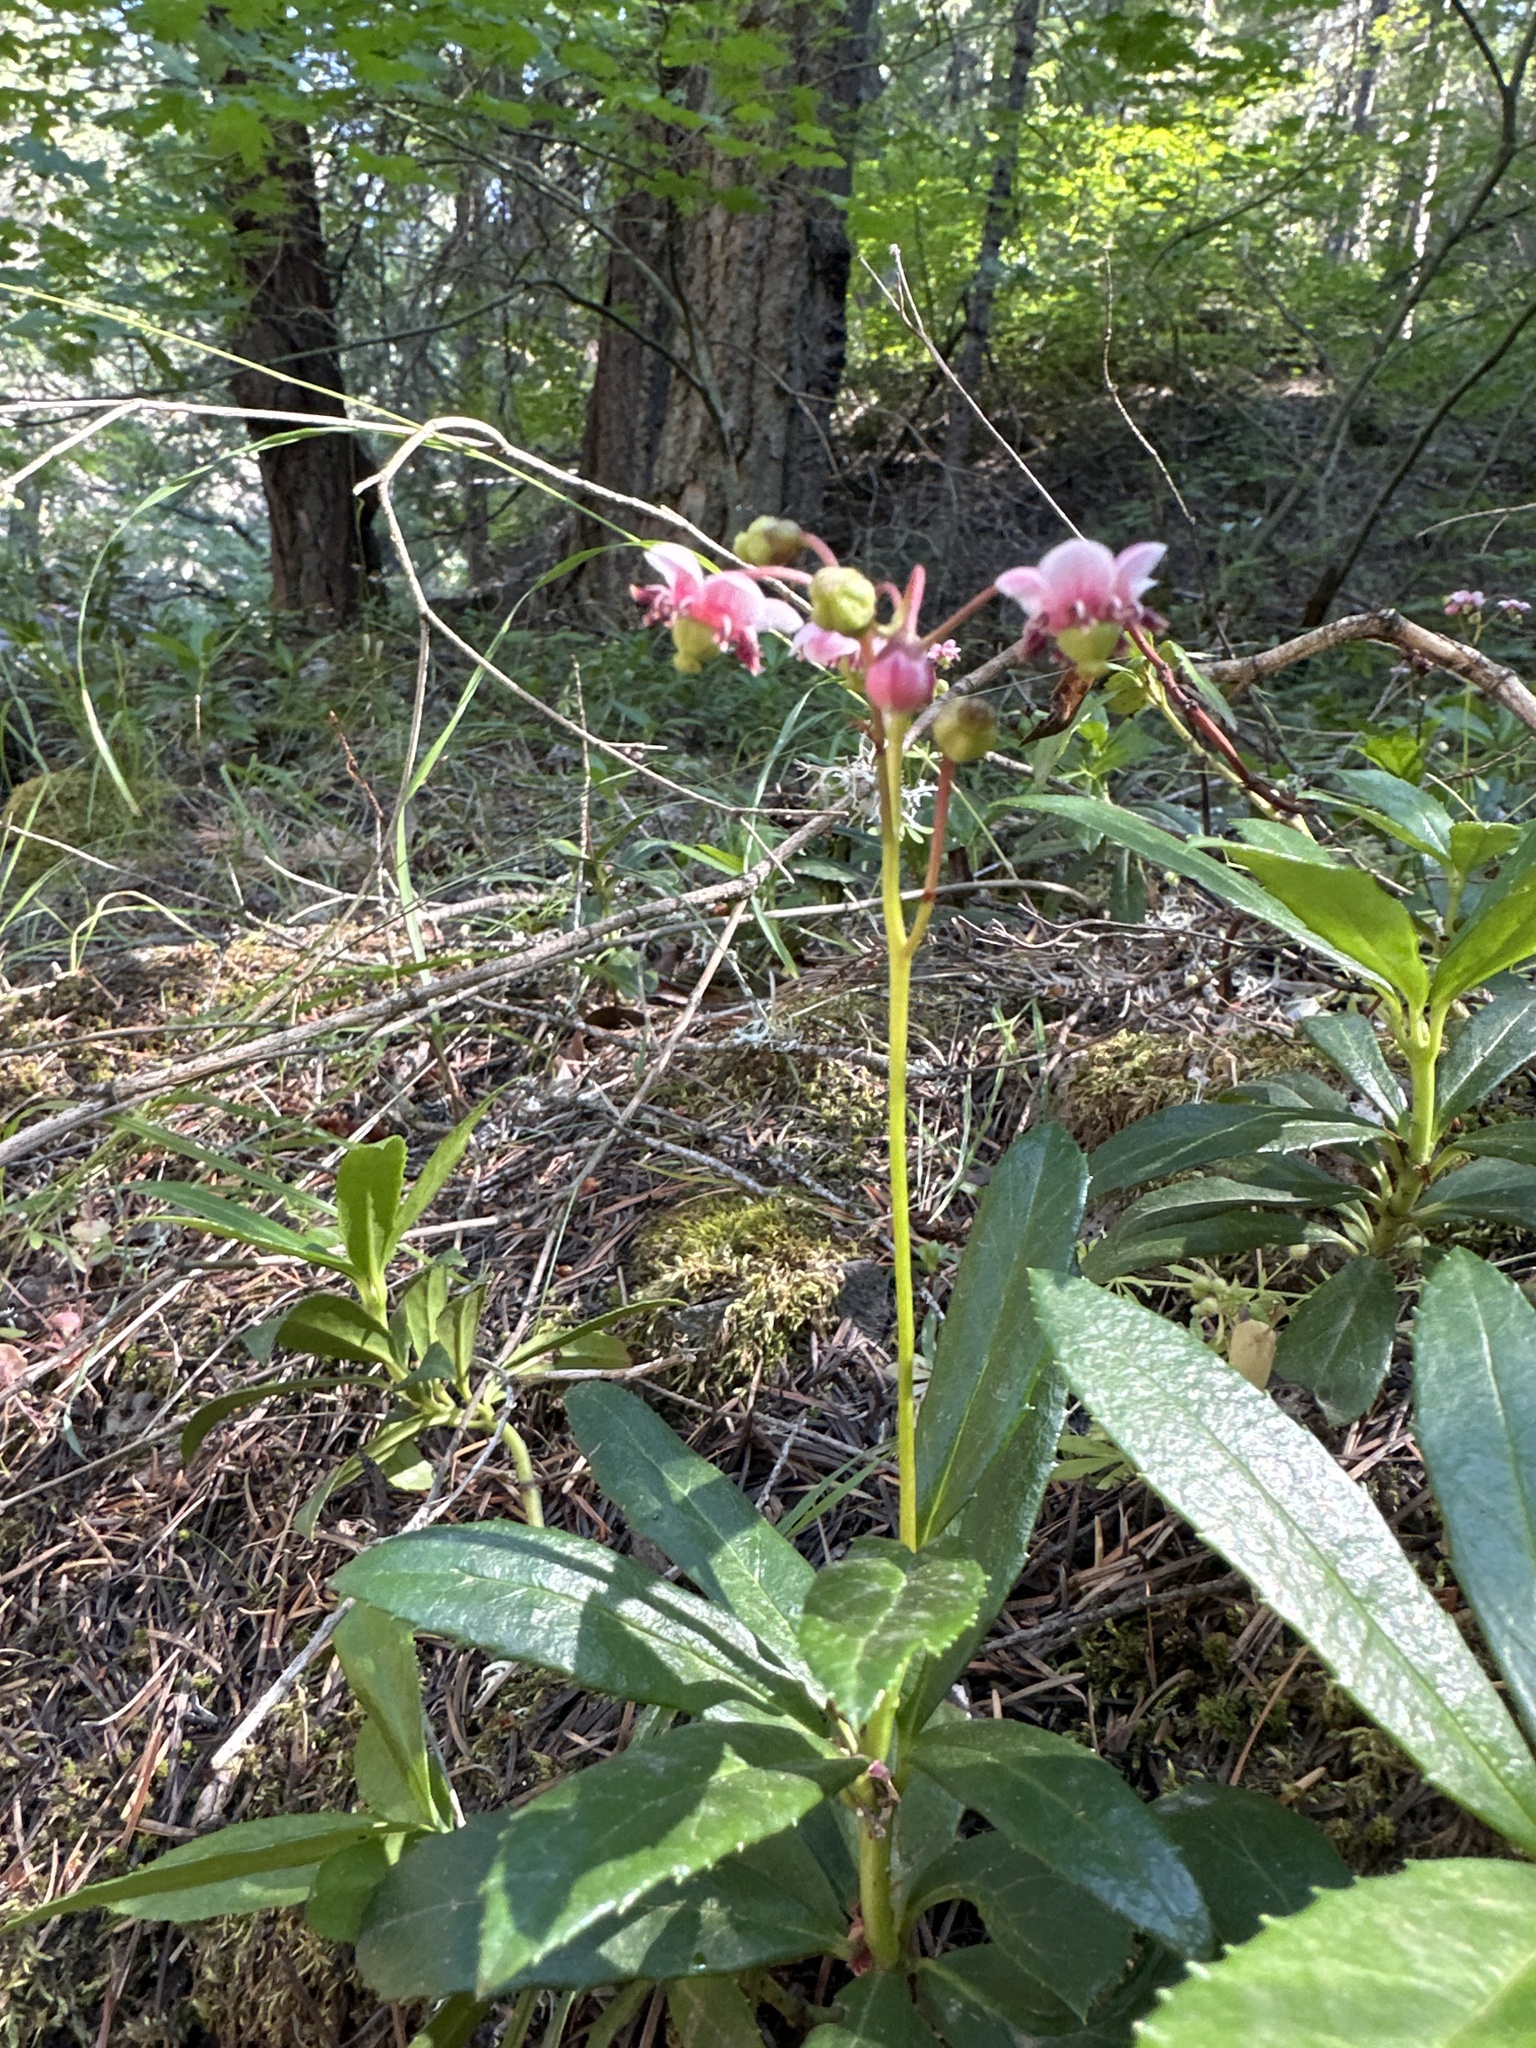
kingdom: Plantae
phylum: Tracheophyta
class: Magnoliopsida
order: Ericales
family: Ericaceae
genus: Chimaphila
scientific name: Chimaphila umbellata
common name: Pipsissewa
